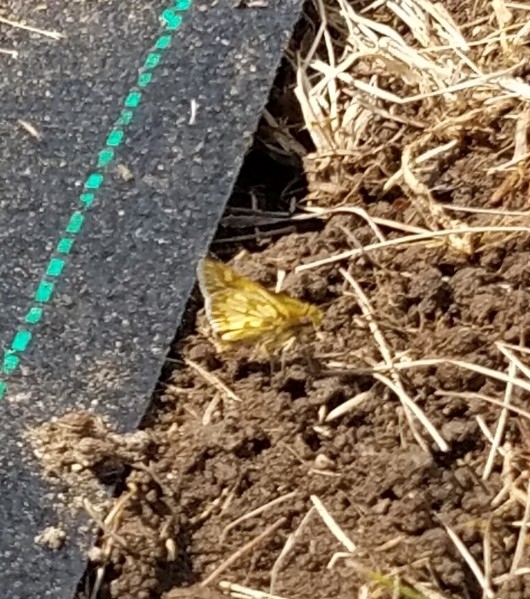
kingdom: Animalia
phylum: Arthropoda
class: Insecta
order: Lepidoptera
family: Hesperiidae
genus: Polites
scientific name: Polites coras
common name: Peck's skipper
